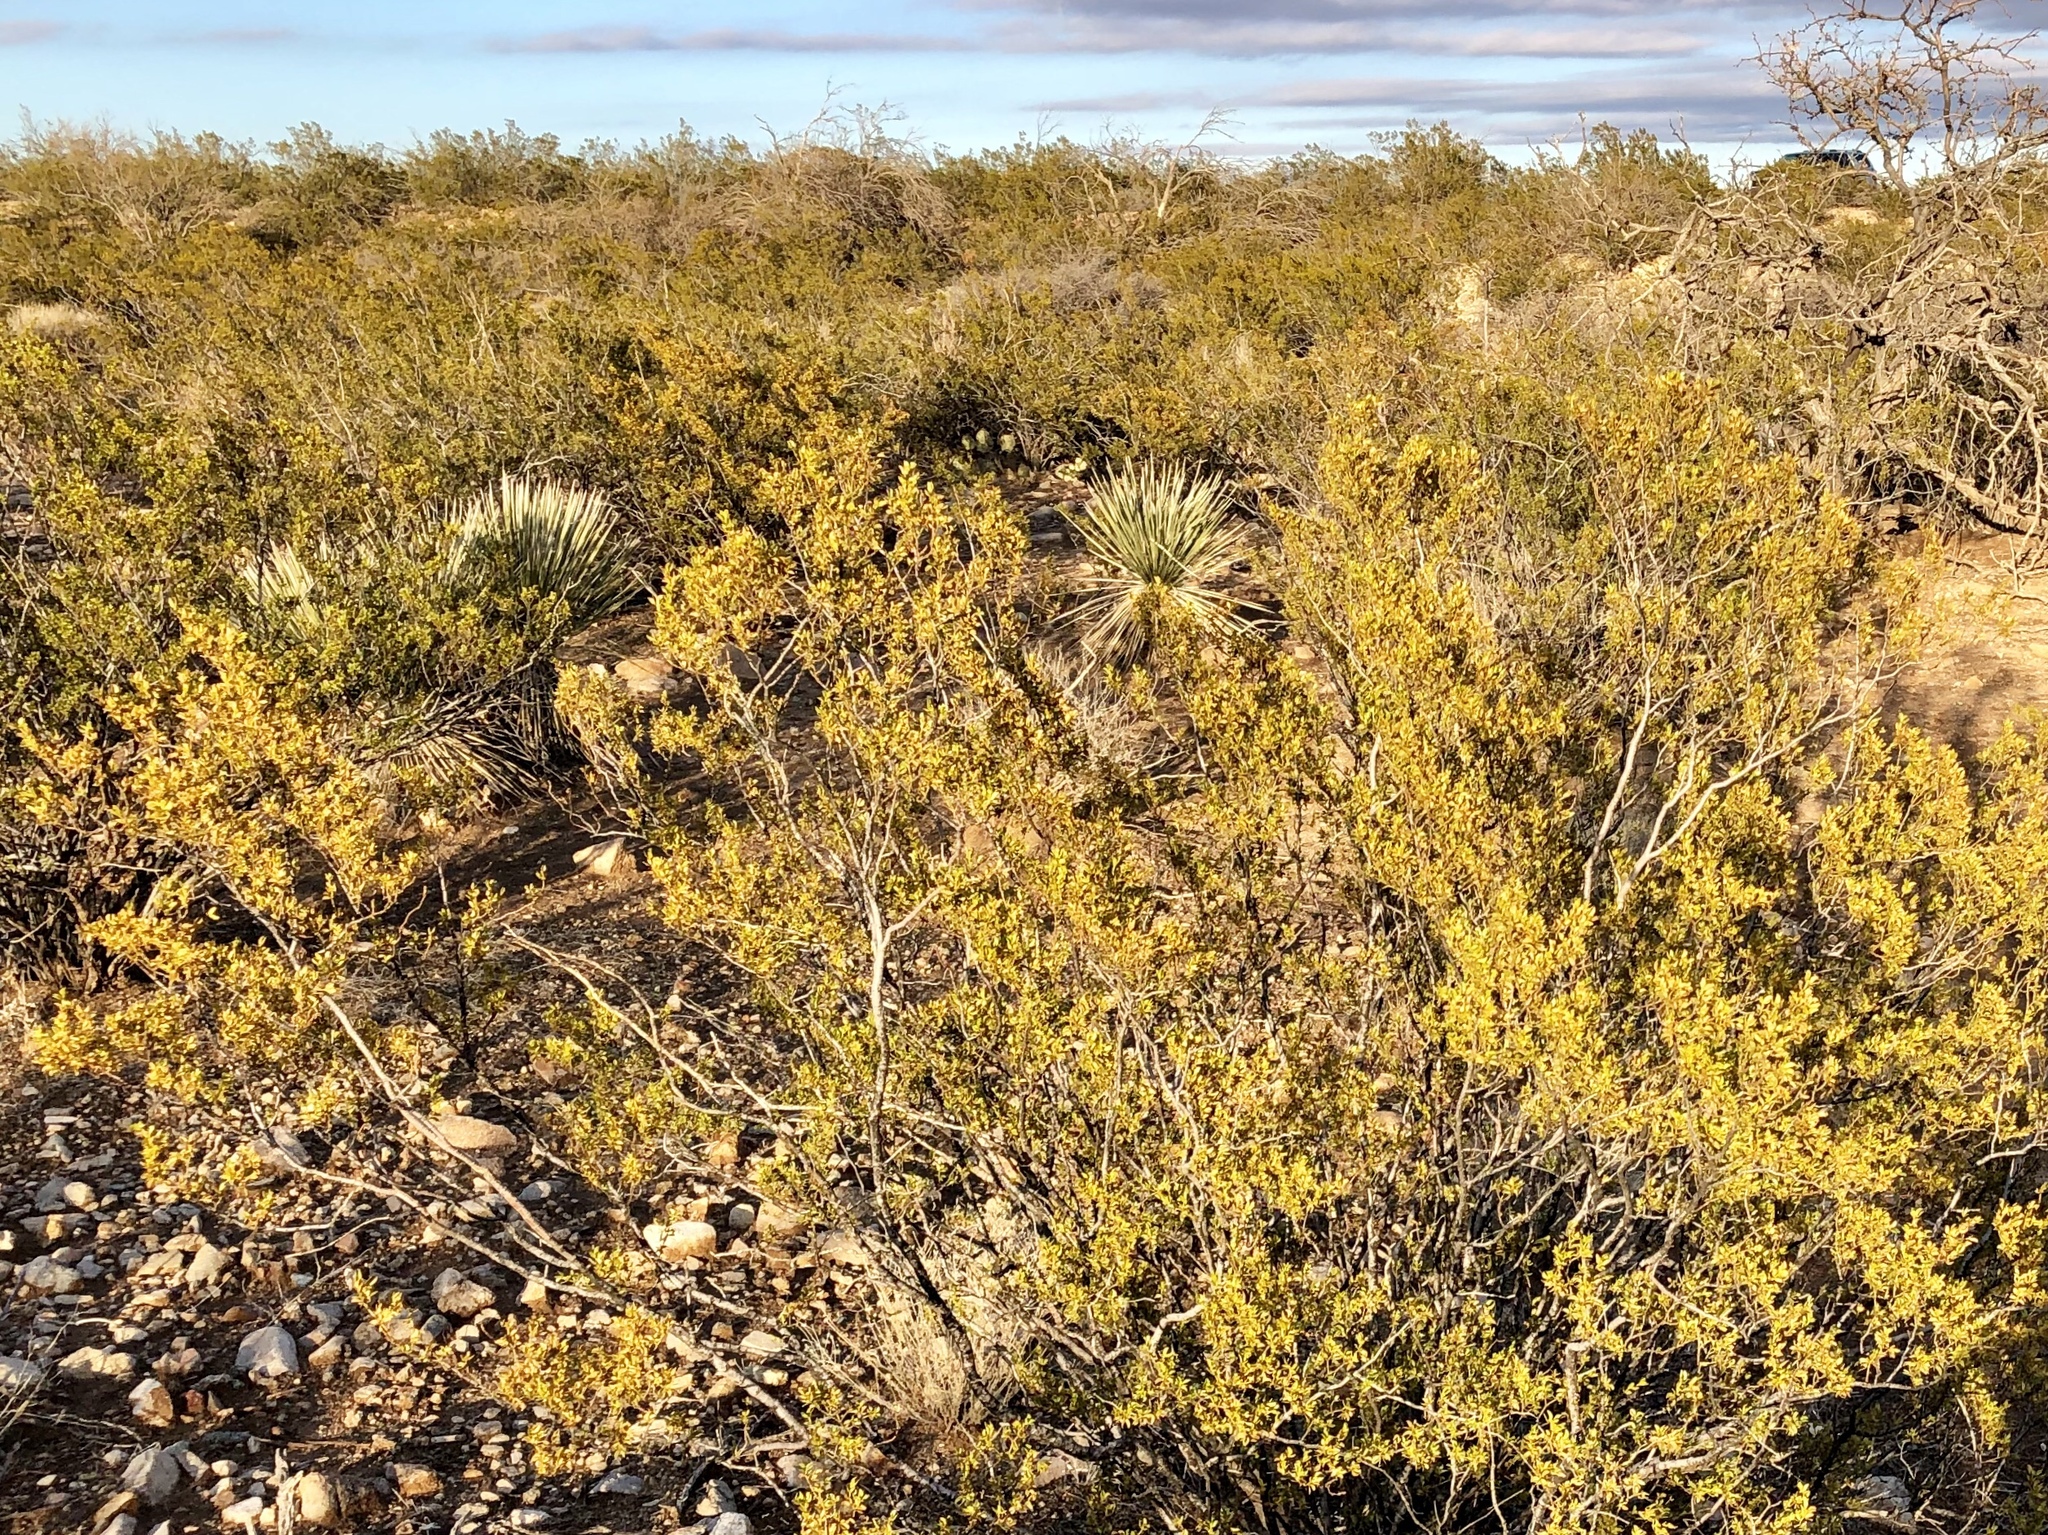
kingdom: Plantae
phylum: Tracheophyta
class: Magnoliopsida
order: Zygophyllales
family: Zygophyllaceae
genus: Larrea
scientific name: Larrea tridentata
